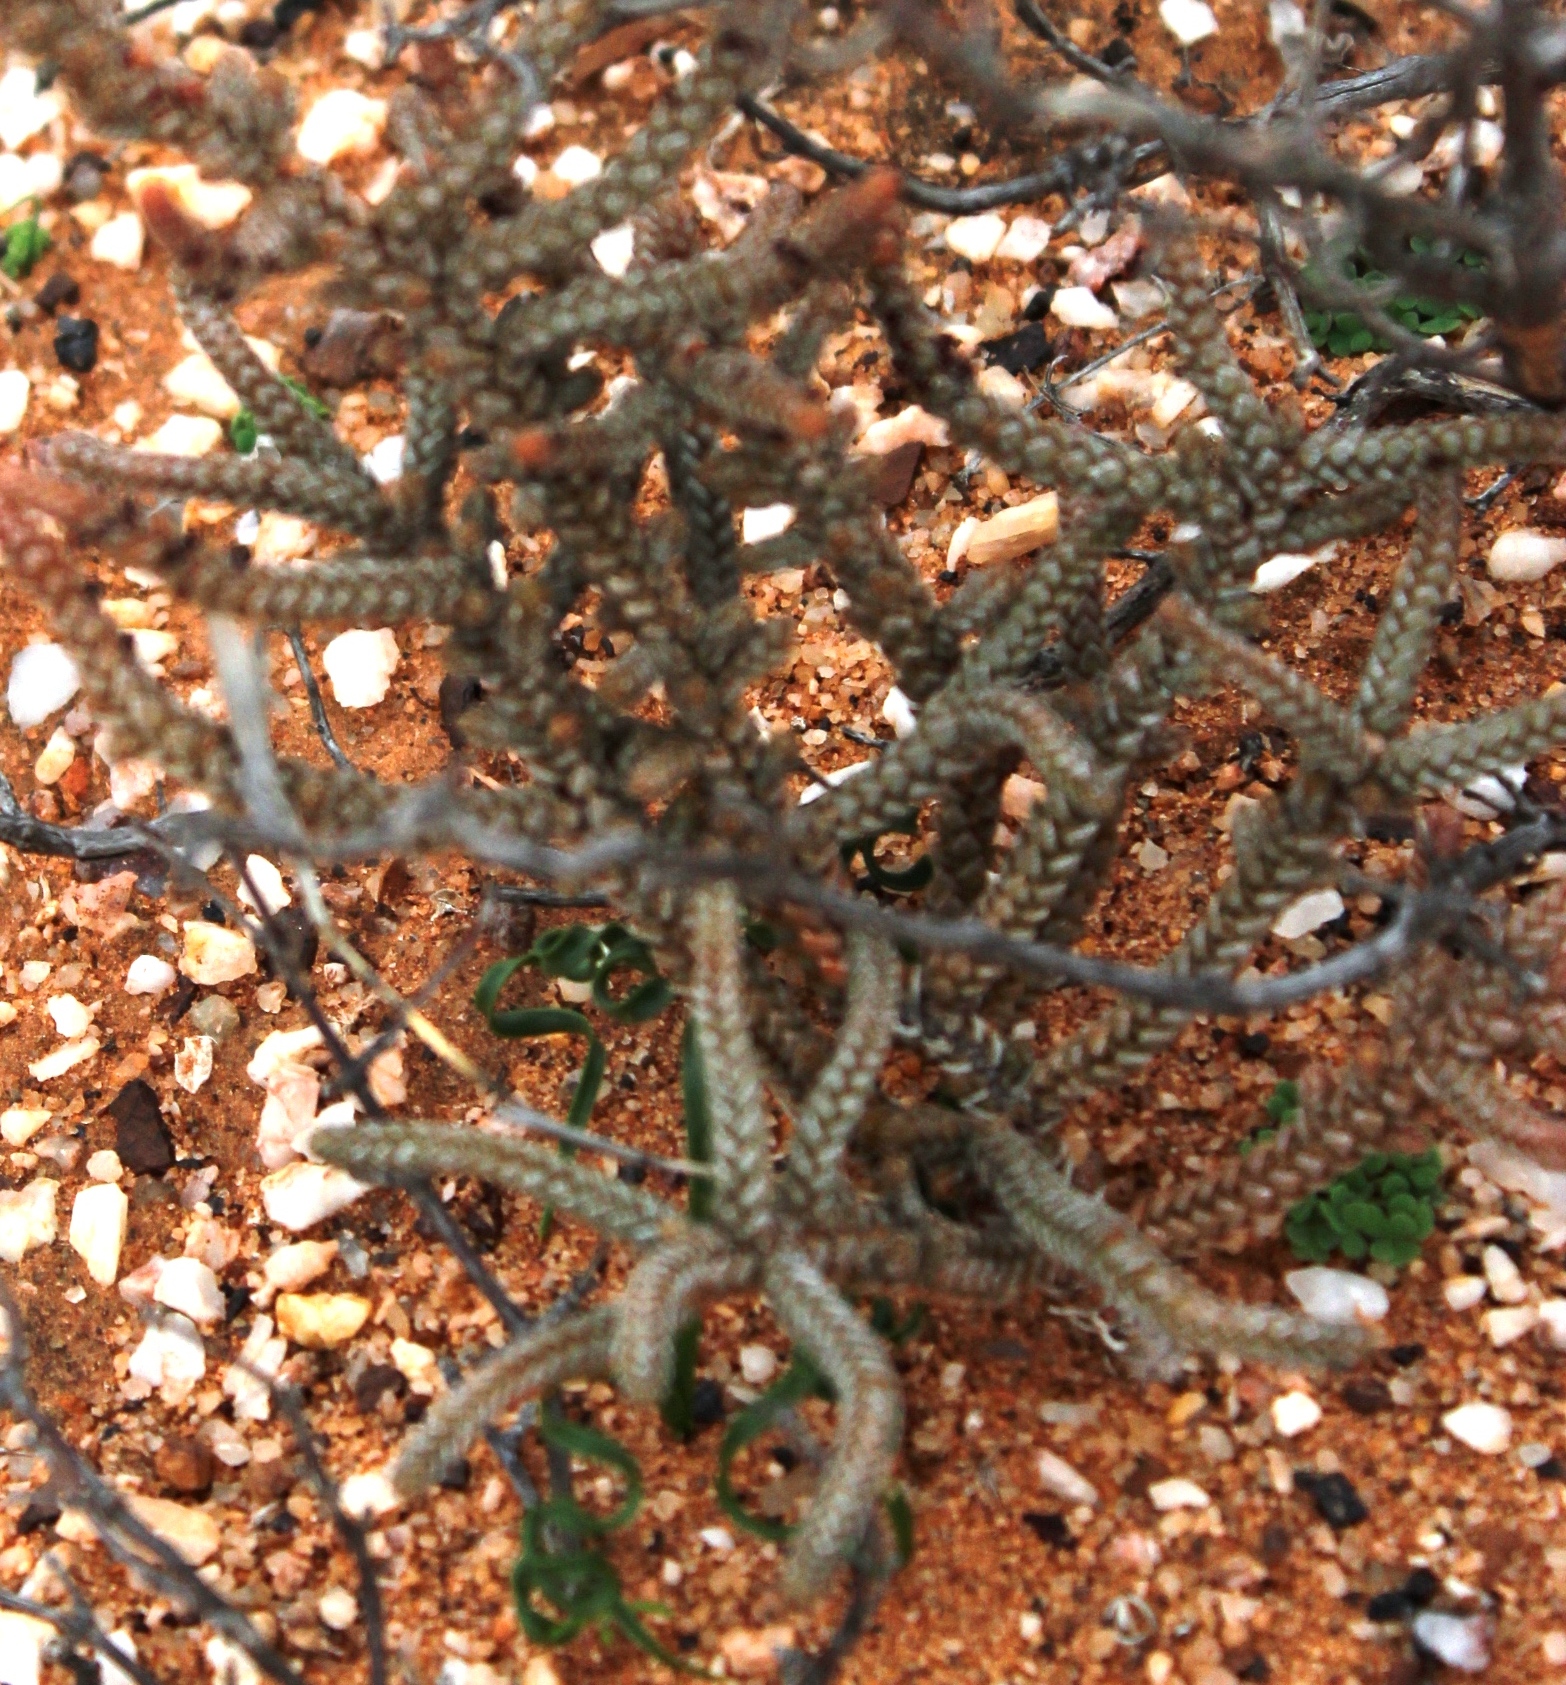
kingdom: Plantae
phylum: Tracheophyta
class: Magnoliopsida
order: Saxifragales
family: Crassulaceae
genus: Crassula
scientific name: Crassula muscosa
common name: Toy-cypress
